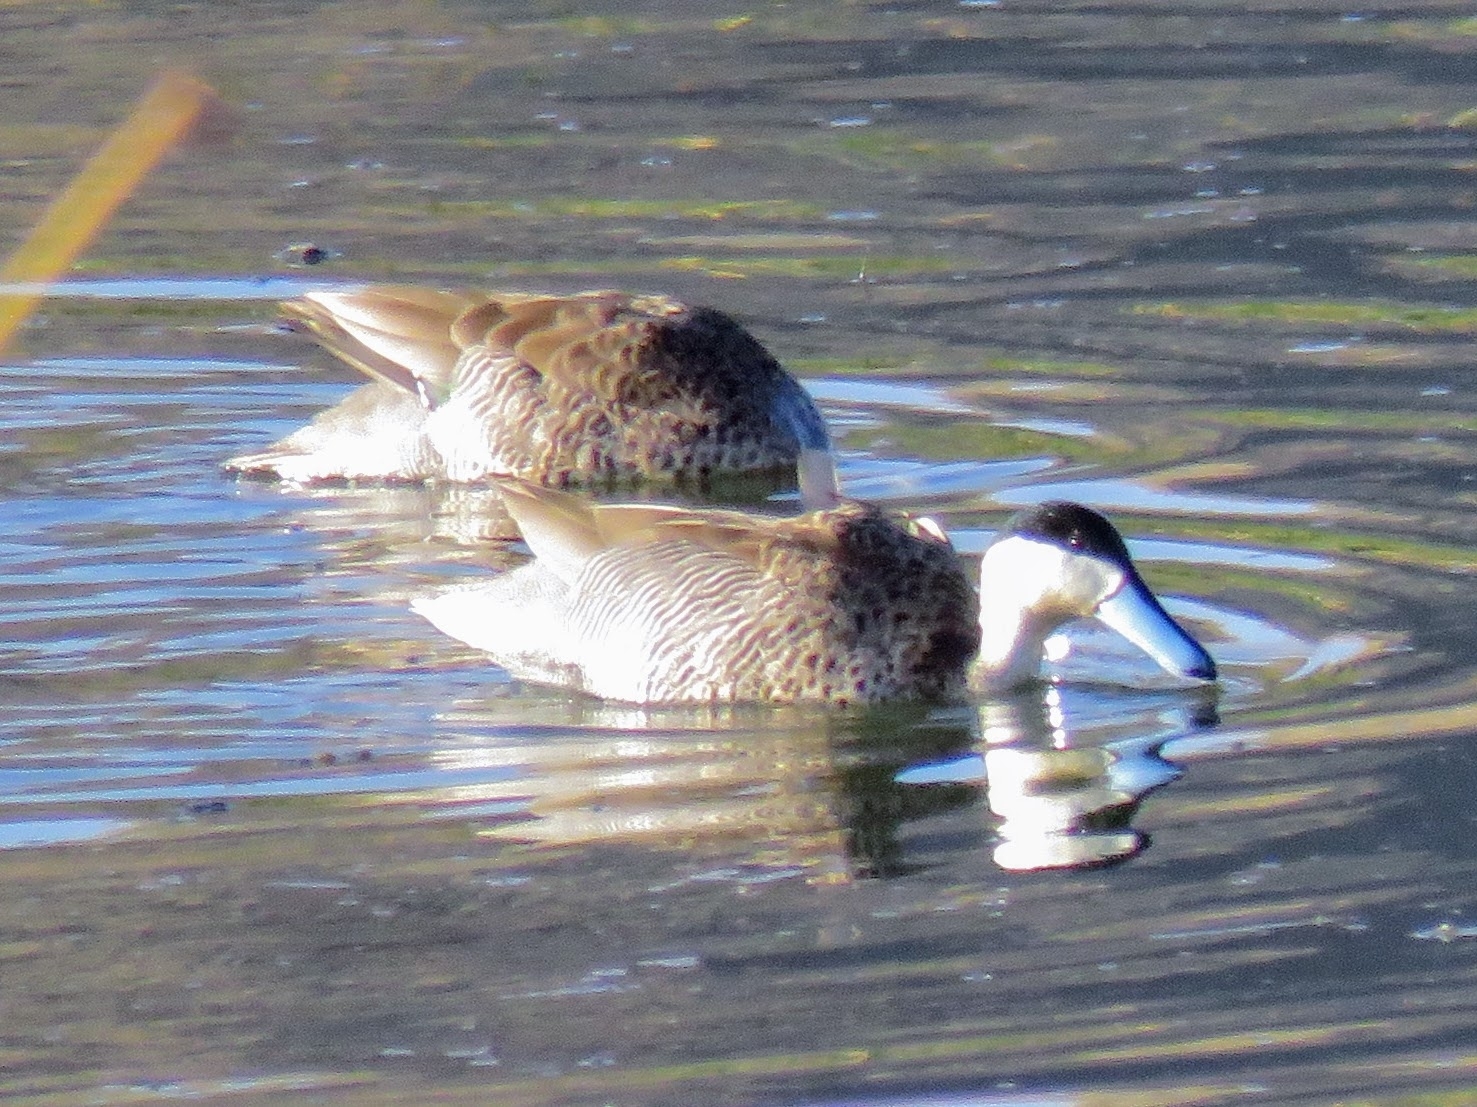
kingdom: Animalia
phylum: Chordata
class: Aves
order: Anseriformes
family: Anatidae
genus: Spatula
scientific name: Spatula puna
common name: Puna teal
